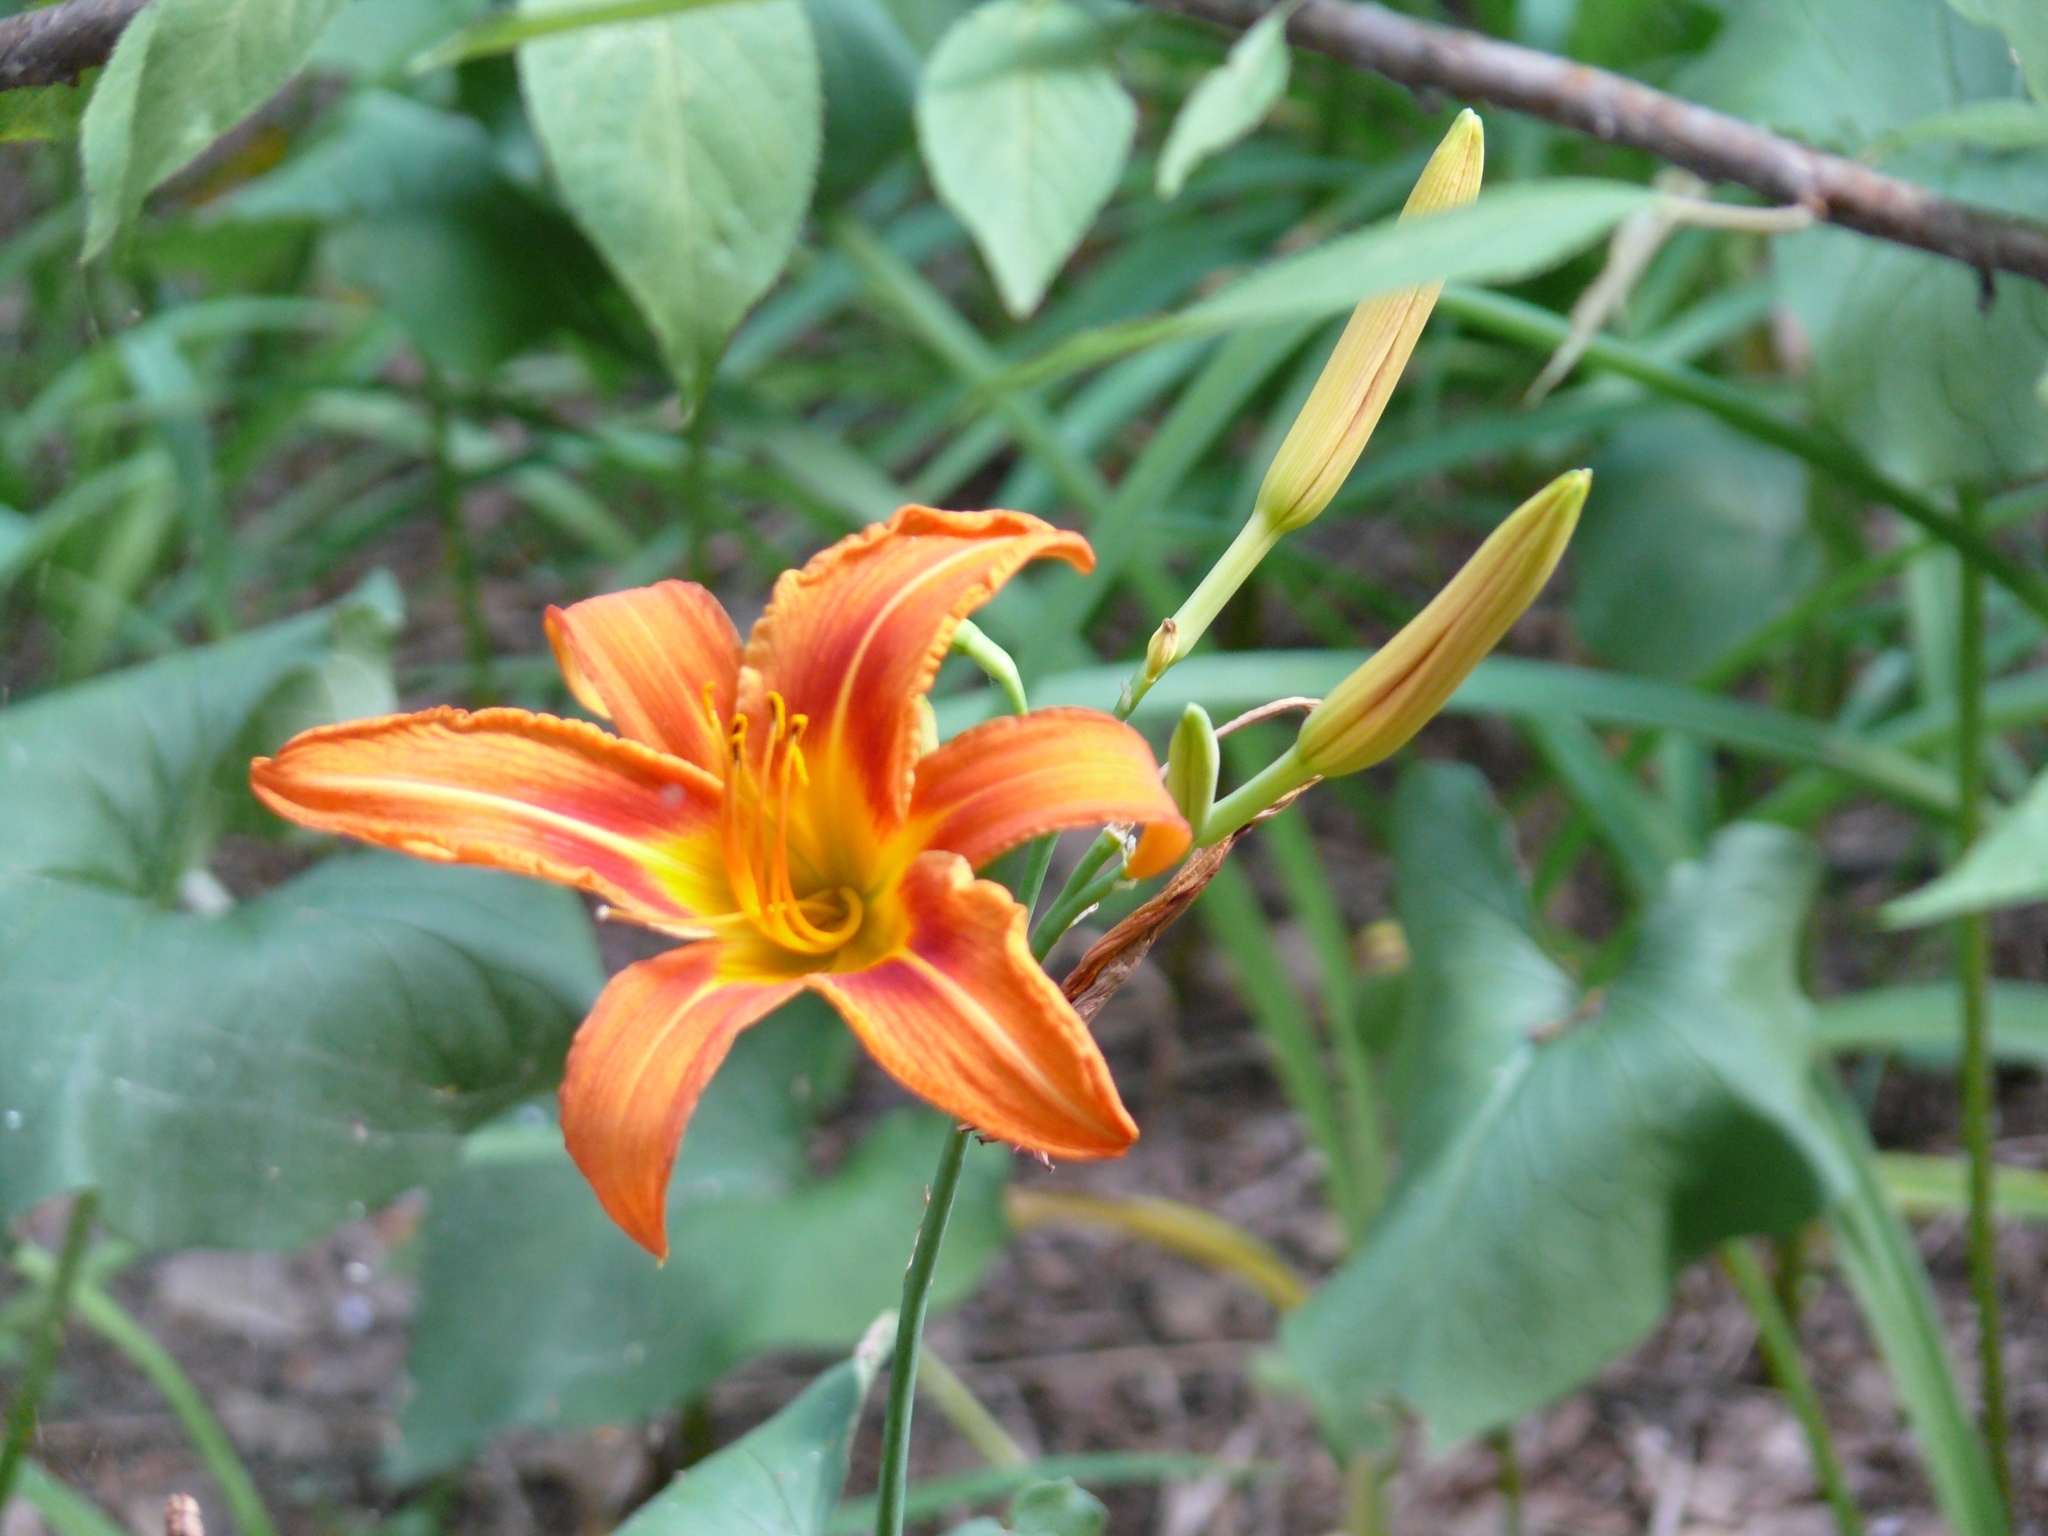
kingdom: Plantae
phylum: Tracheophyta
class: Liliopsida
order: Asparagales
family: Asphodelaceae
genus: Hemerocallis
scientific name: Hemerocallis fulva
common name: Orange day-lily
